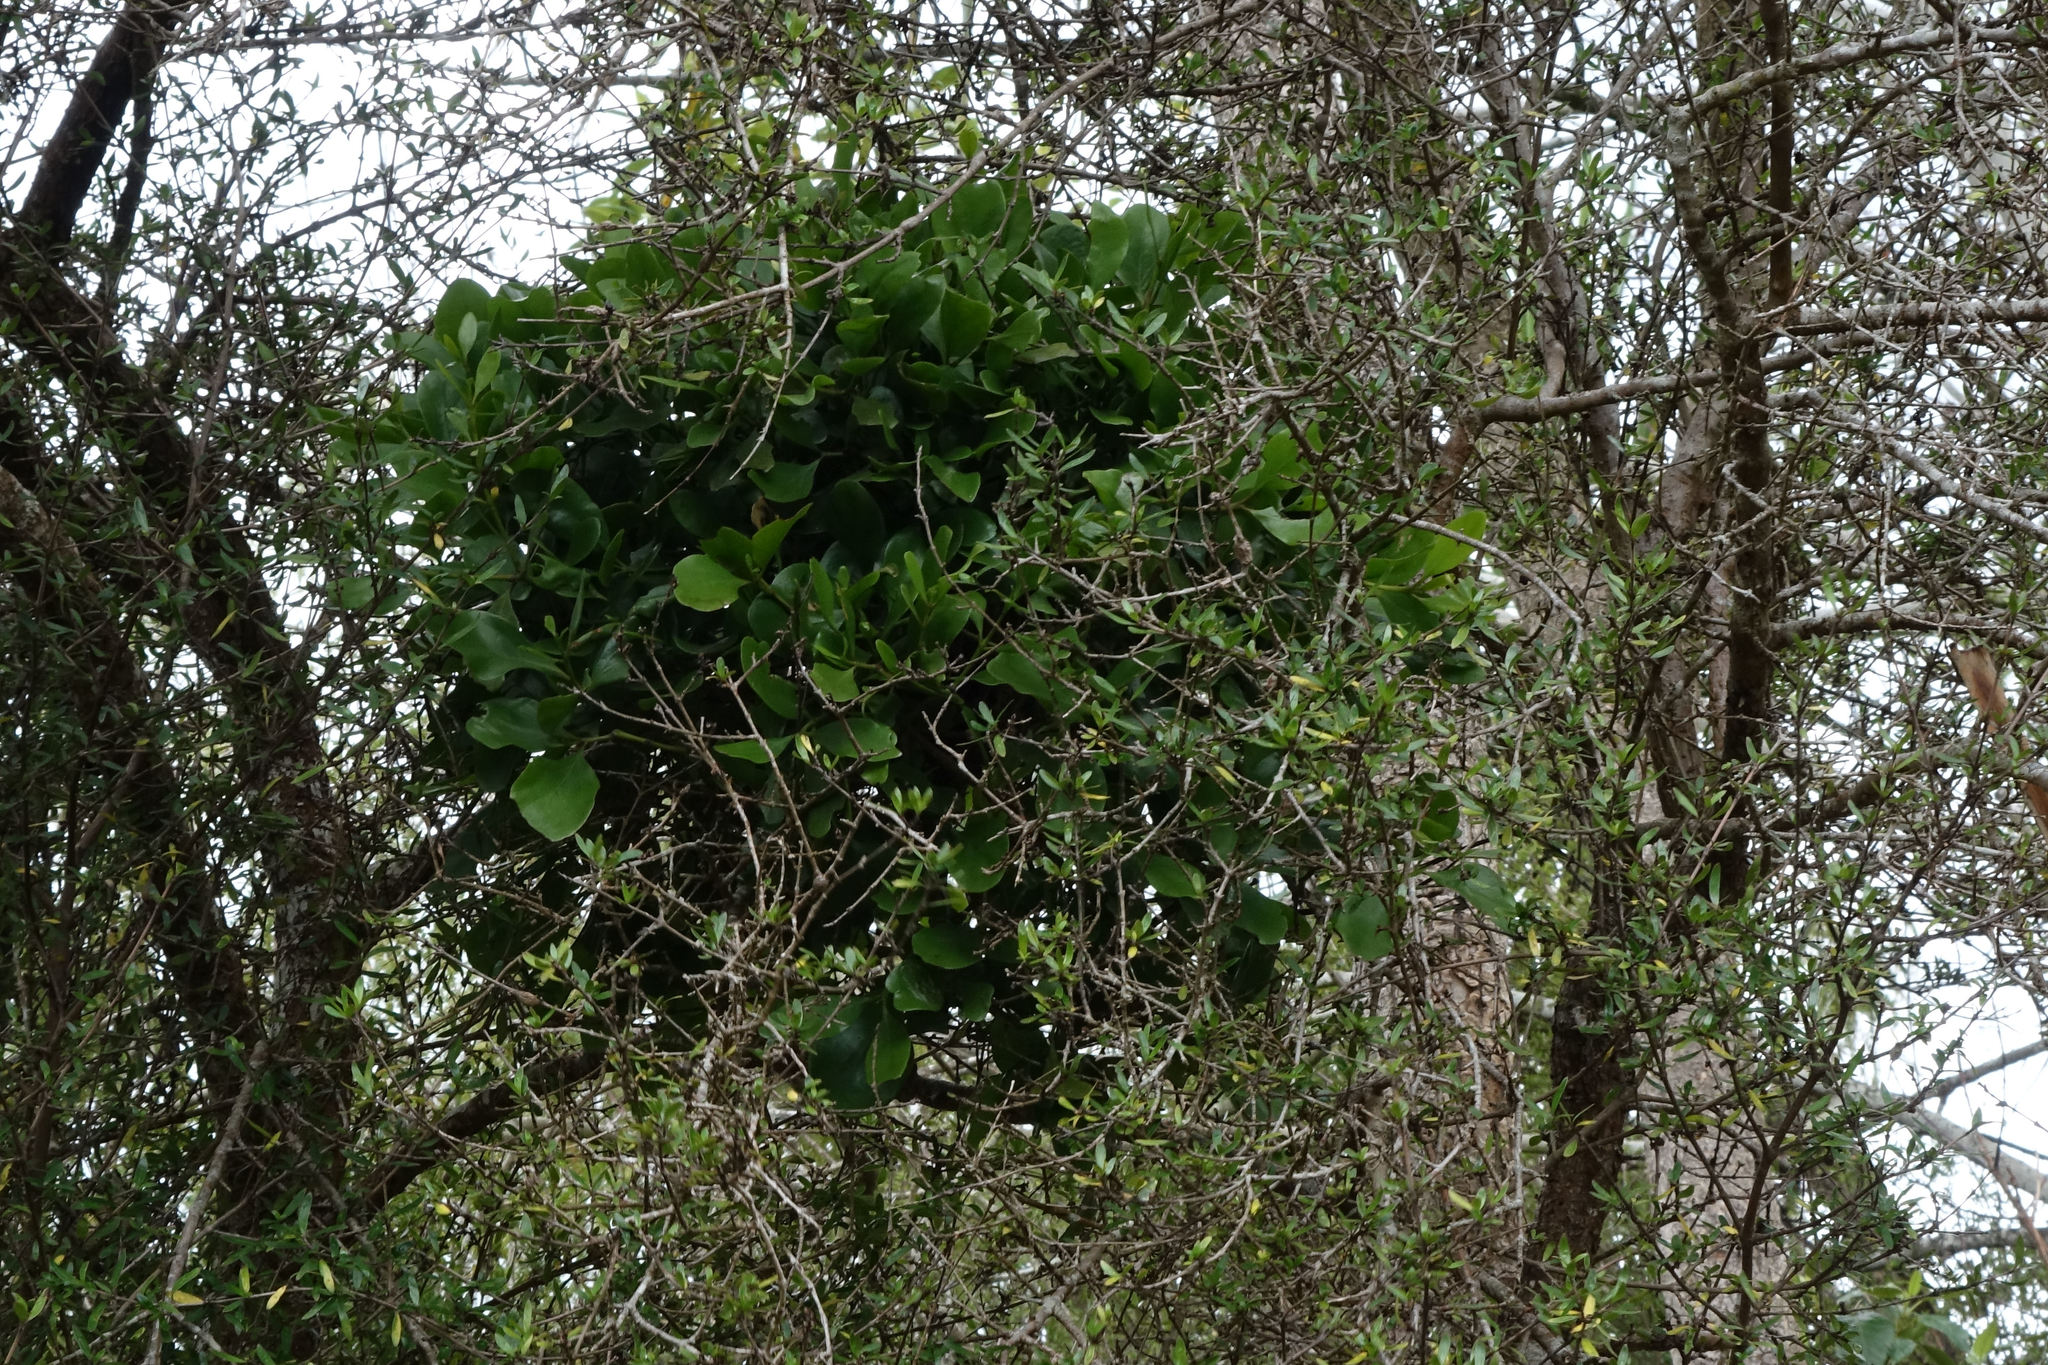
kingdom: Plantae
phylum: Tracheophyta
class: Magnoliopsida
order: Santalales
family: Loranthaceae
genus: Ileostylus
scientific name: Ileostylus micranthus
